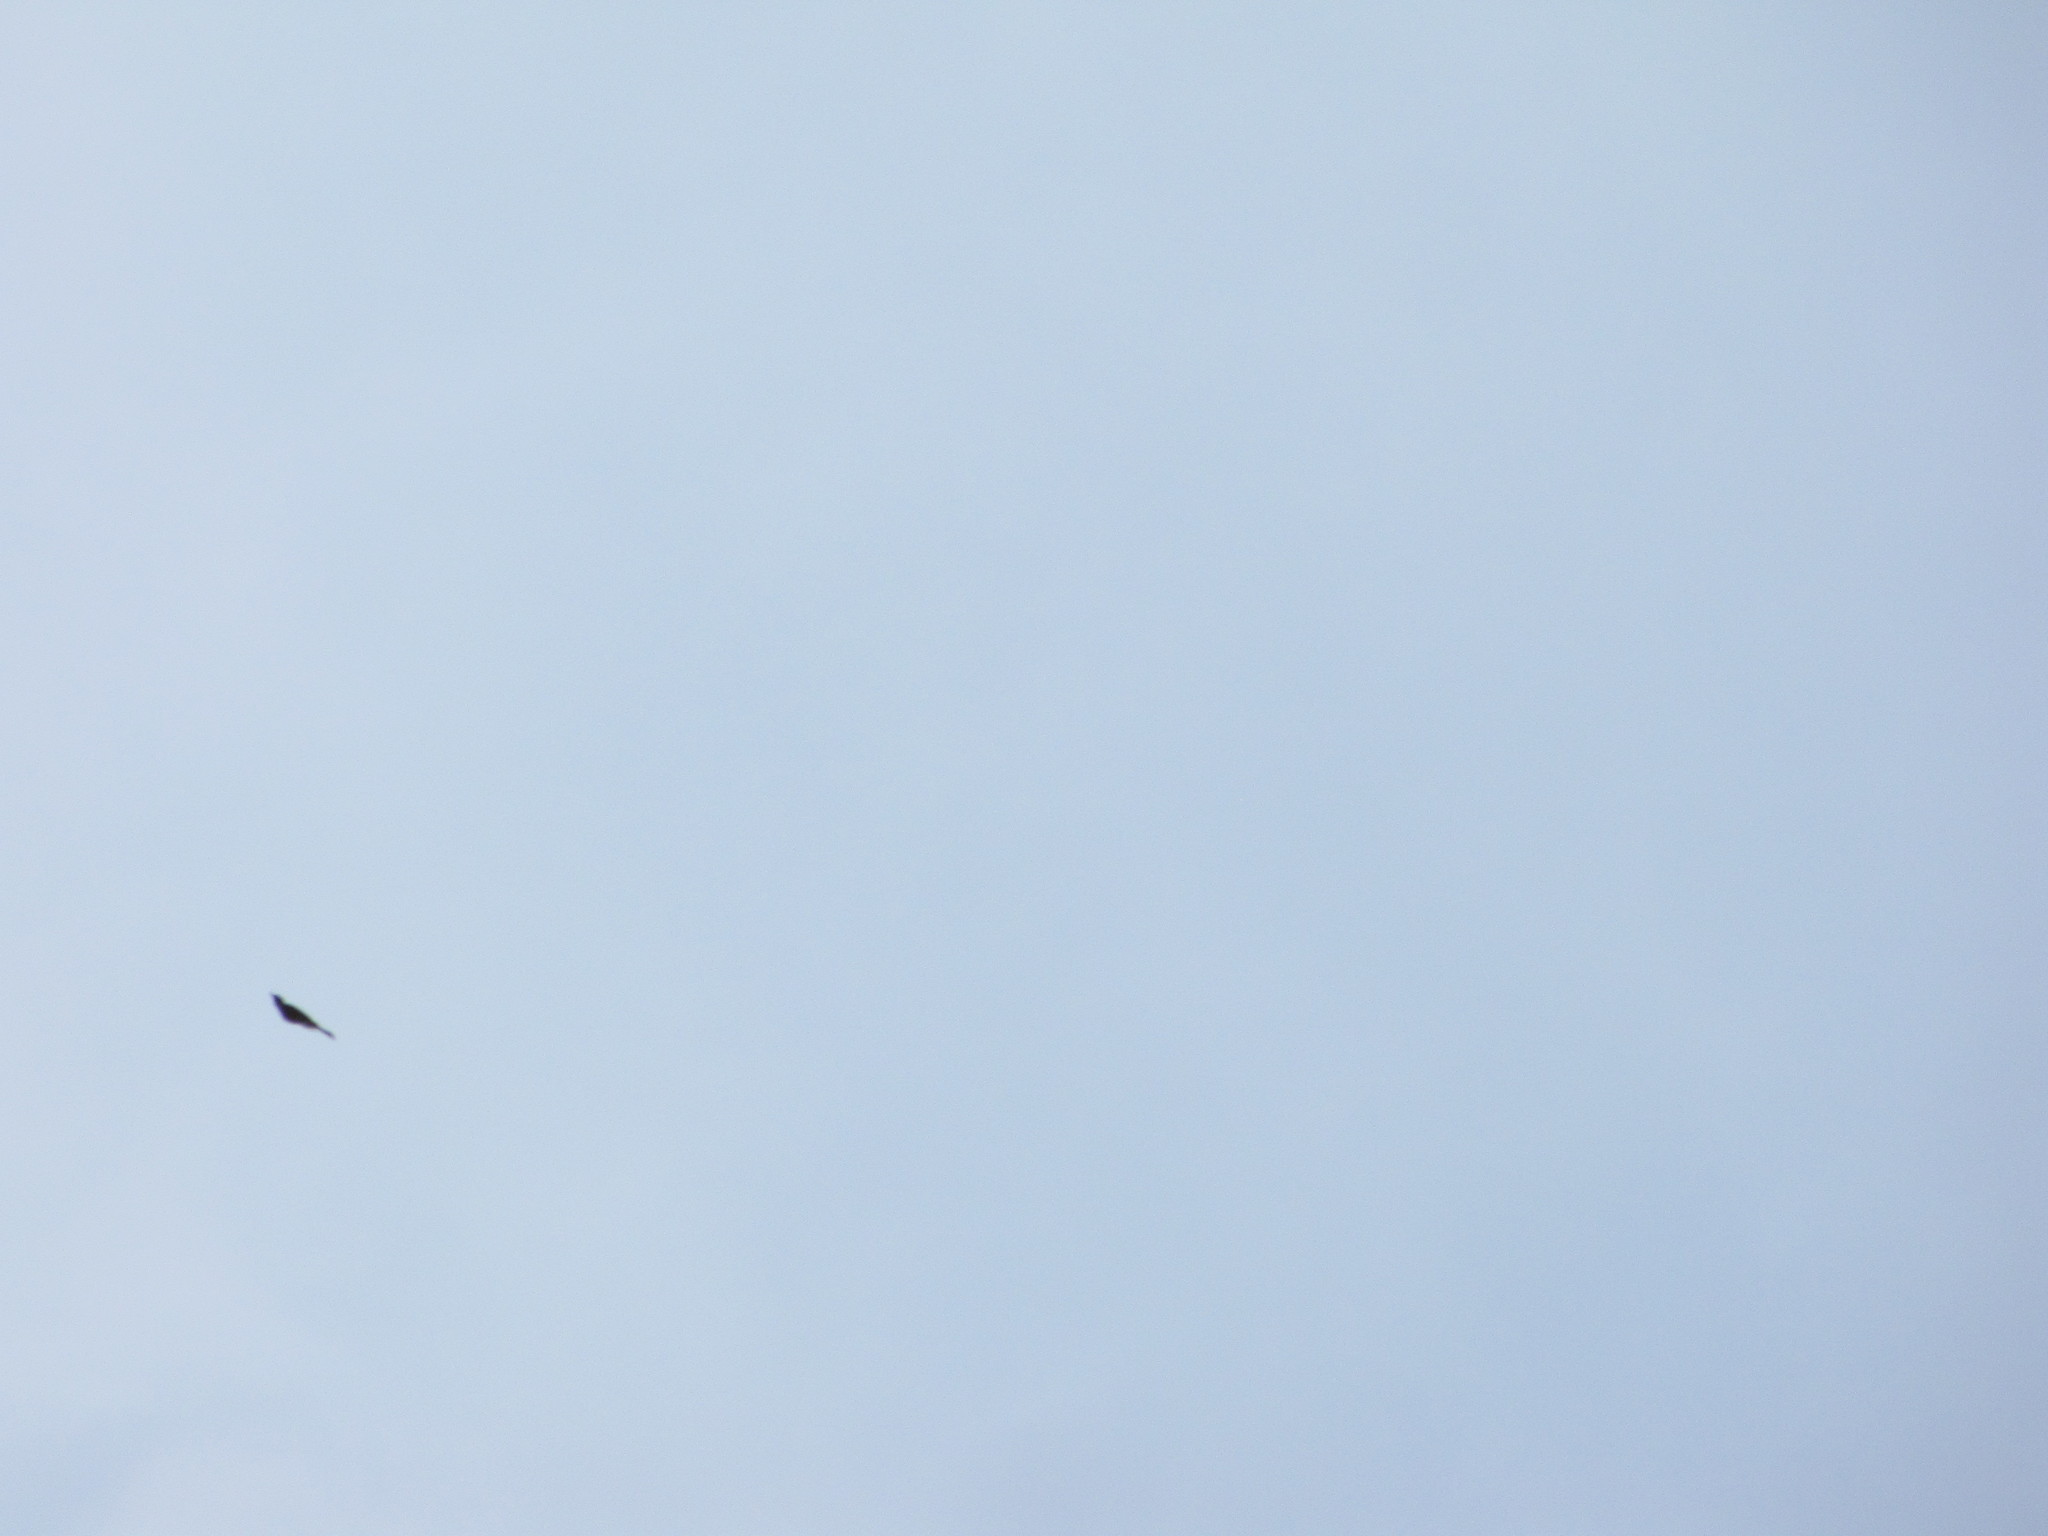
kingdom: Animalia
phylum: Chordata
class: Aves
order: Piciformes
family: Picidae
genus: Colaptes
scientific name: Colaptes auratus
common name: Northern flicker
